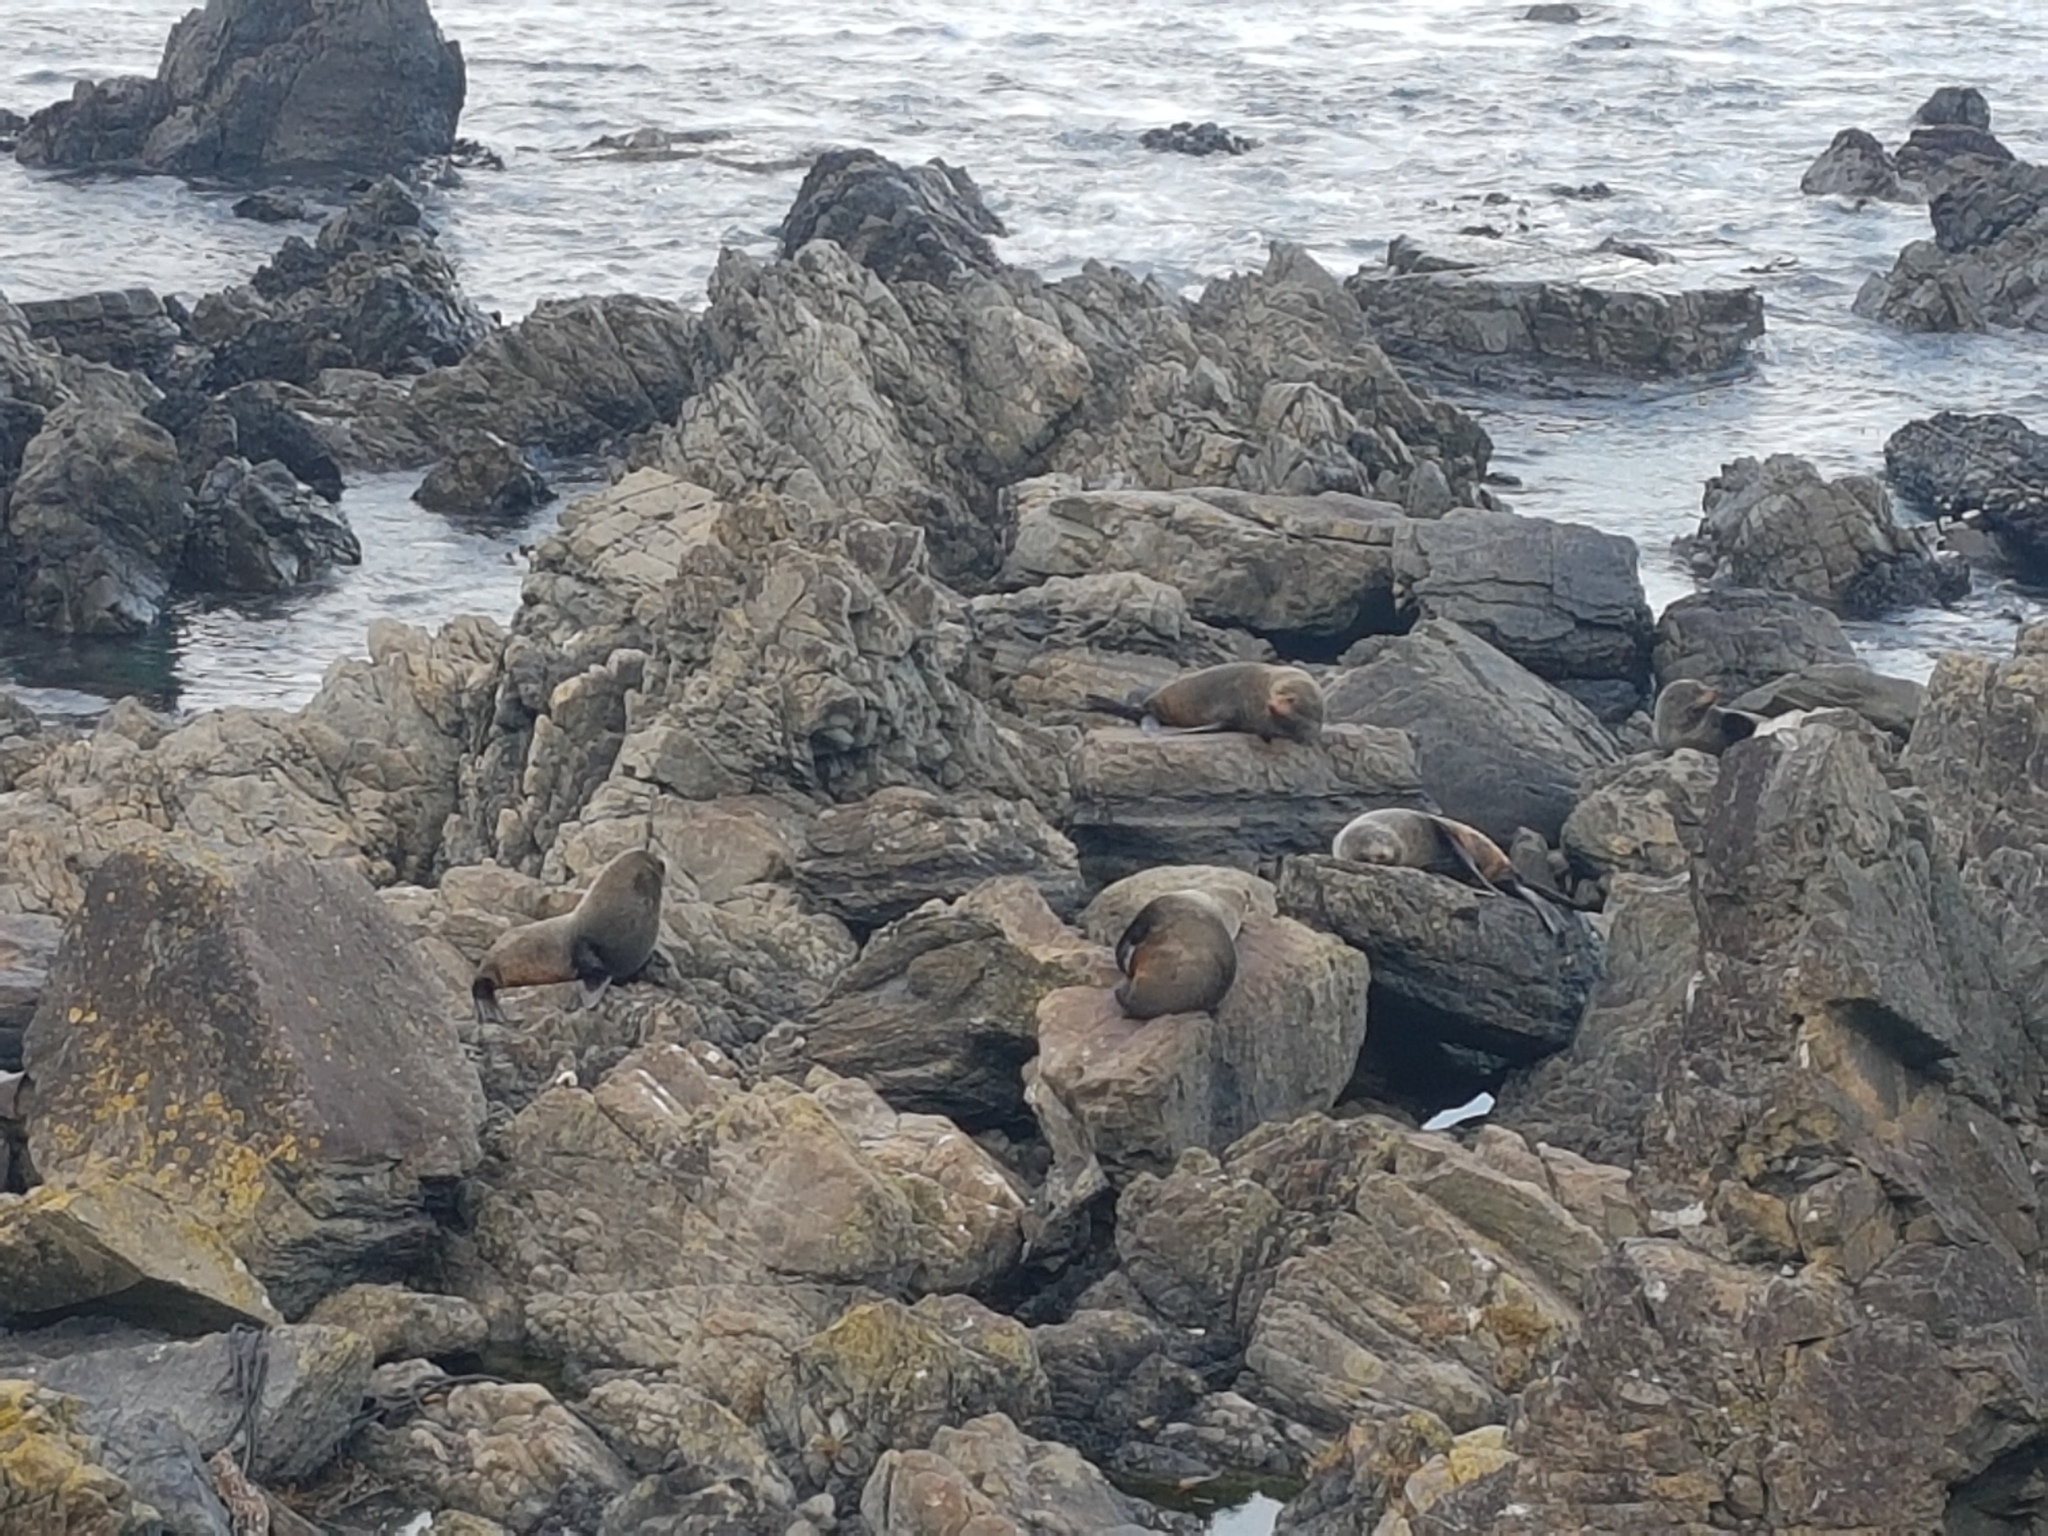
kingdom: Animalia
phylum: Chordata
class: Mammalia
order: Carnivora
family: Otariidae
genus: Arctocephalus
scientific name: Arctocephalus forsteri
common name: New zealand fur seal
